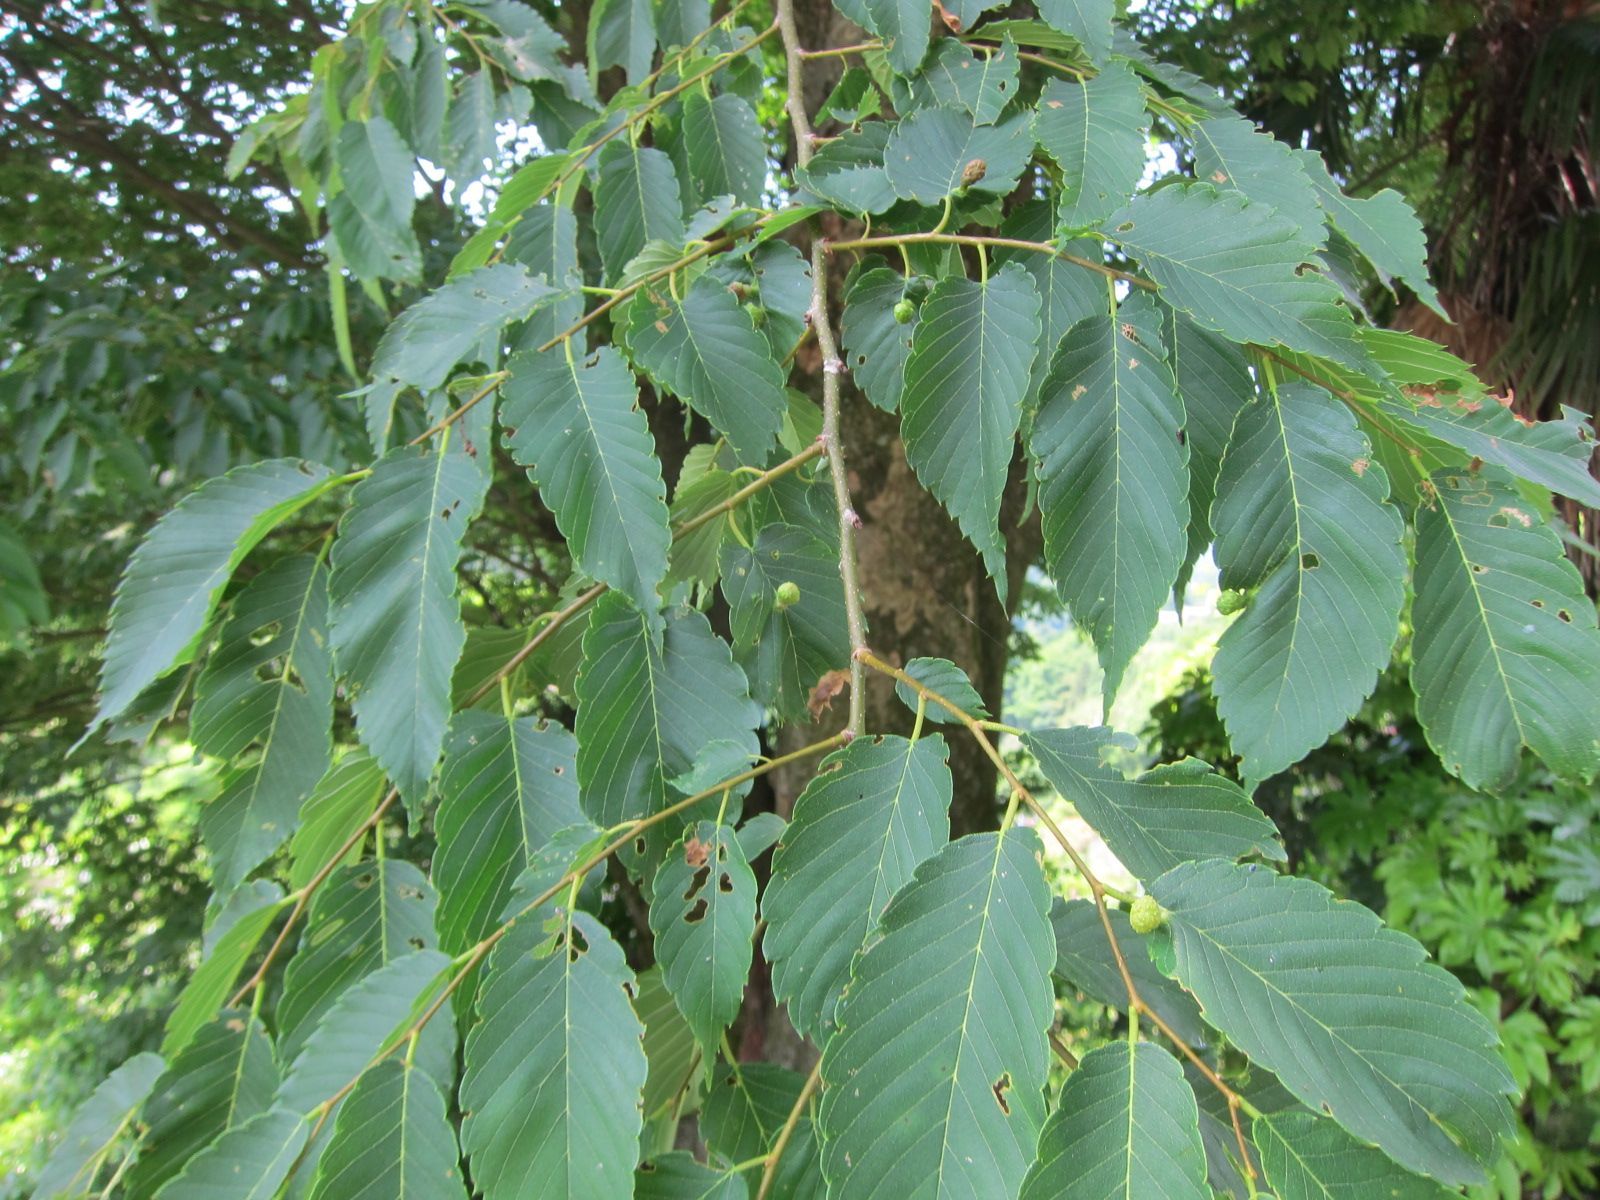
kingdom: Plantae
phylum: Tracheophyta
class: Magnoliopsida
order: Rosales
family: Ulmaceae
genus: Zelkova
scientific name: Zelkova serrata
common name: Japanese zelkova
